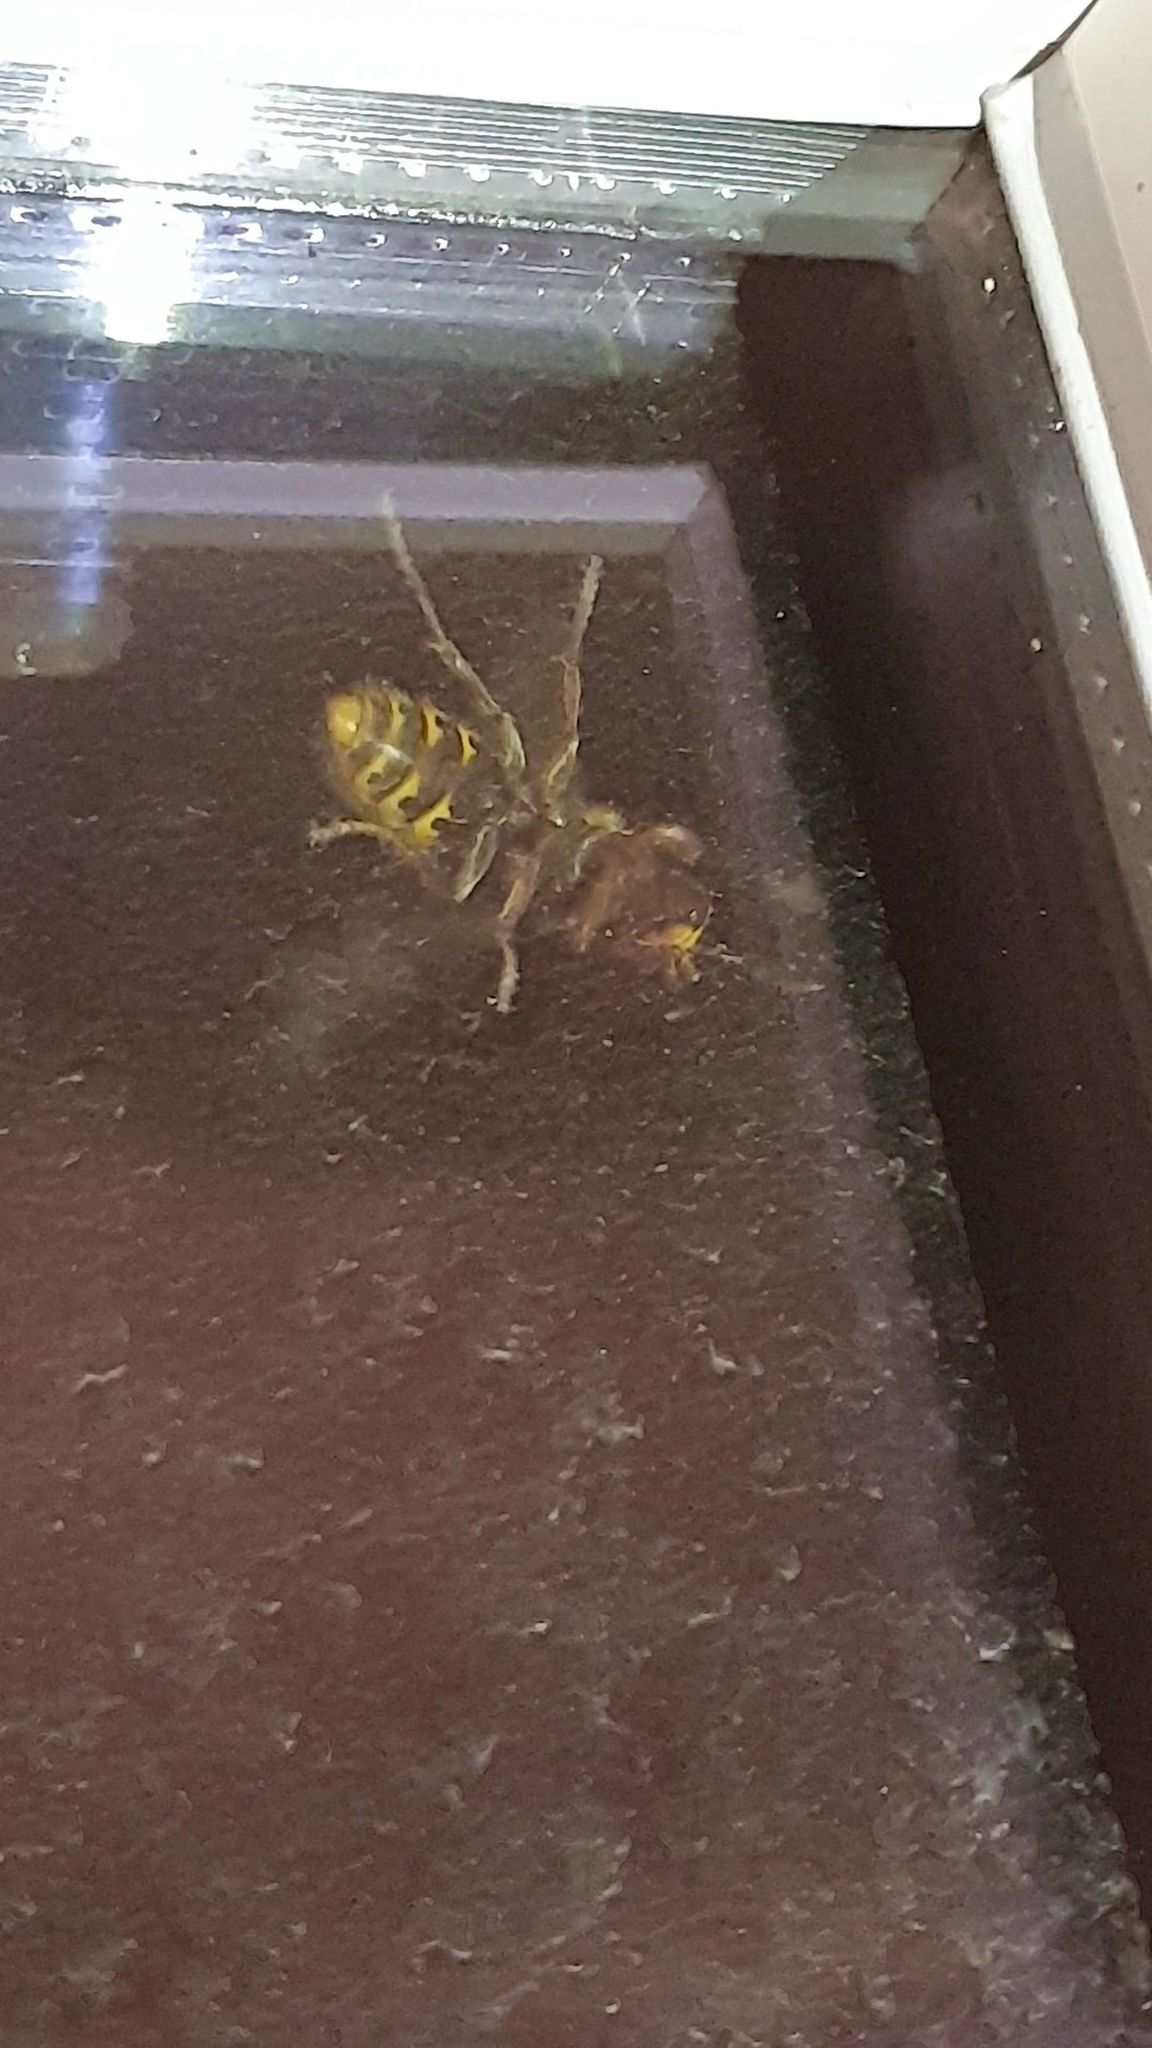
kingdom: Animalia
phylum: Arthropoda
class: Insecta
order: Hymenoptera
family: Vespidae
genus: Vespa
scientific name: Vespa crabro
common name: Hornet
